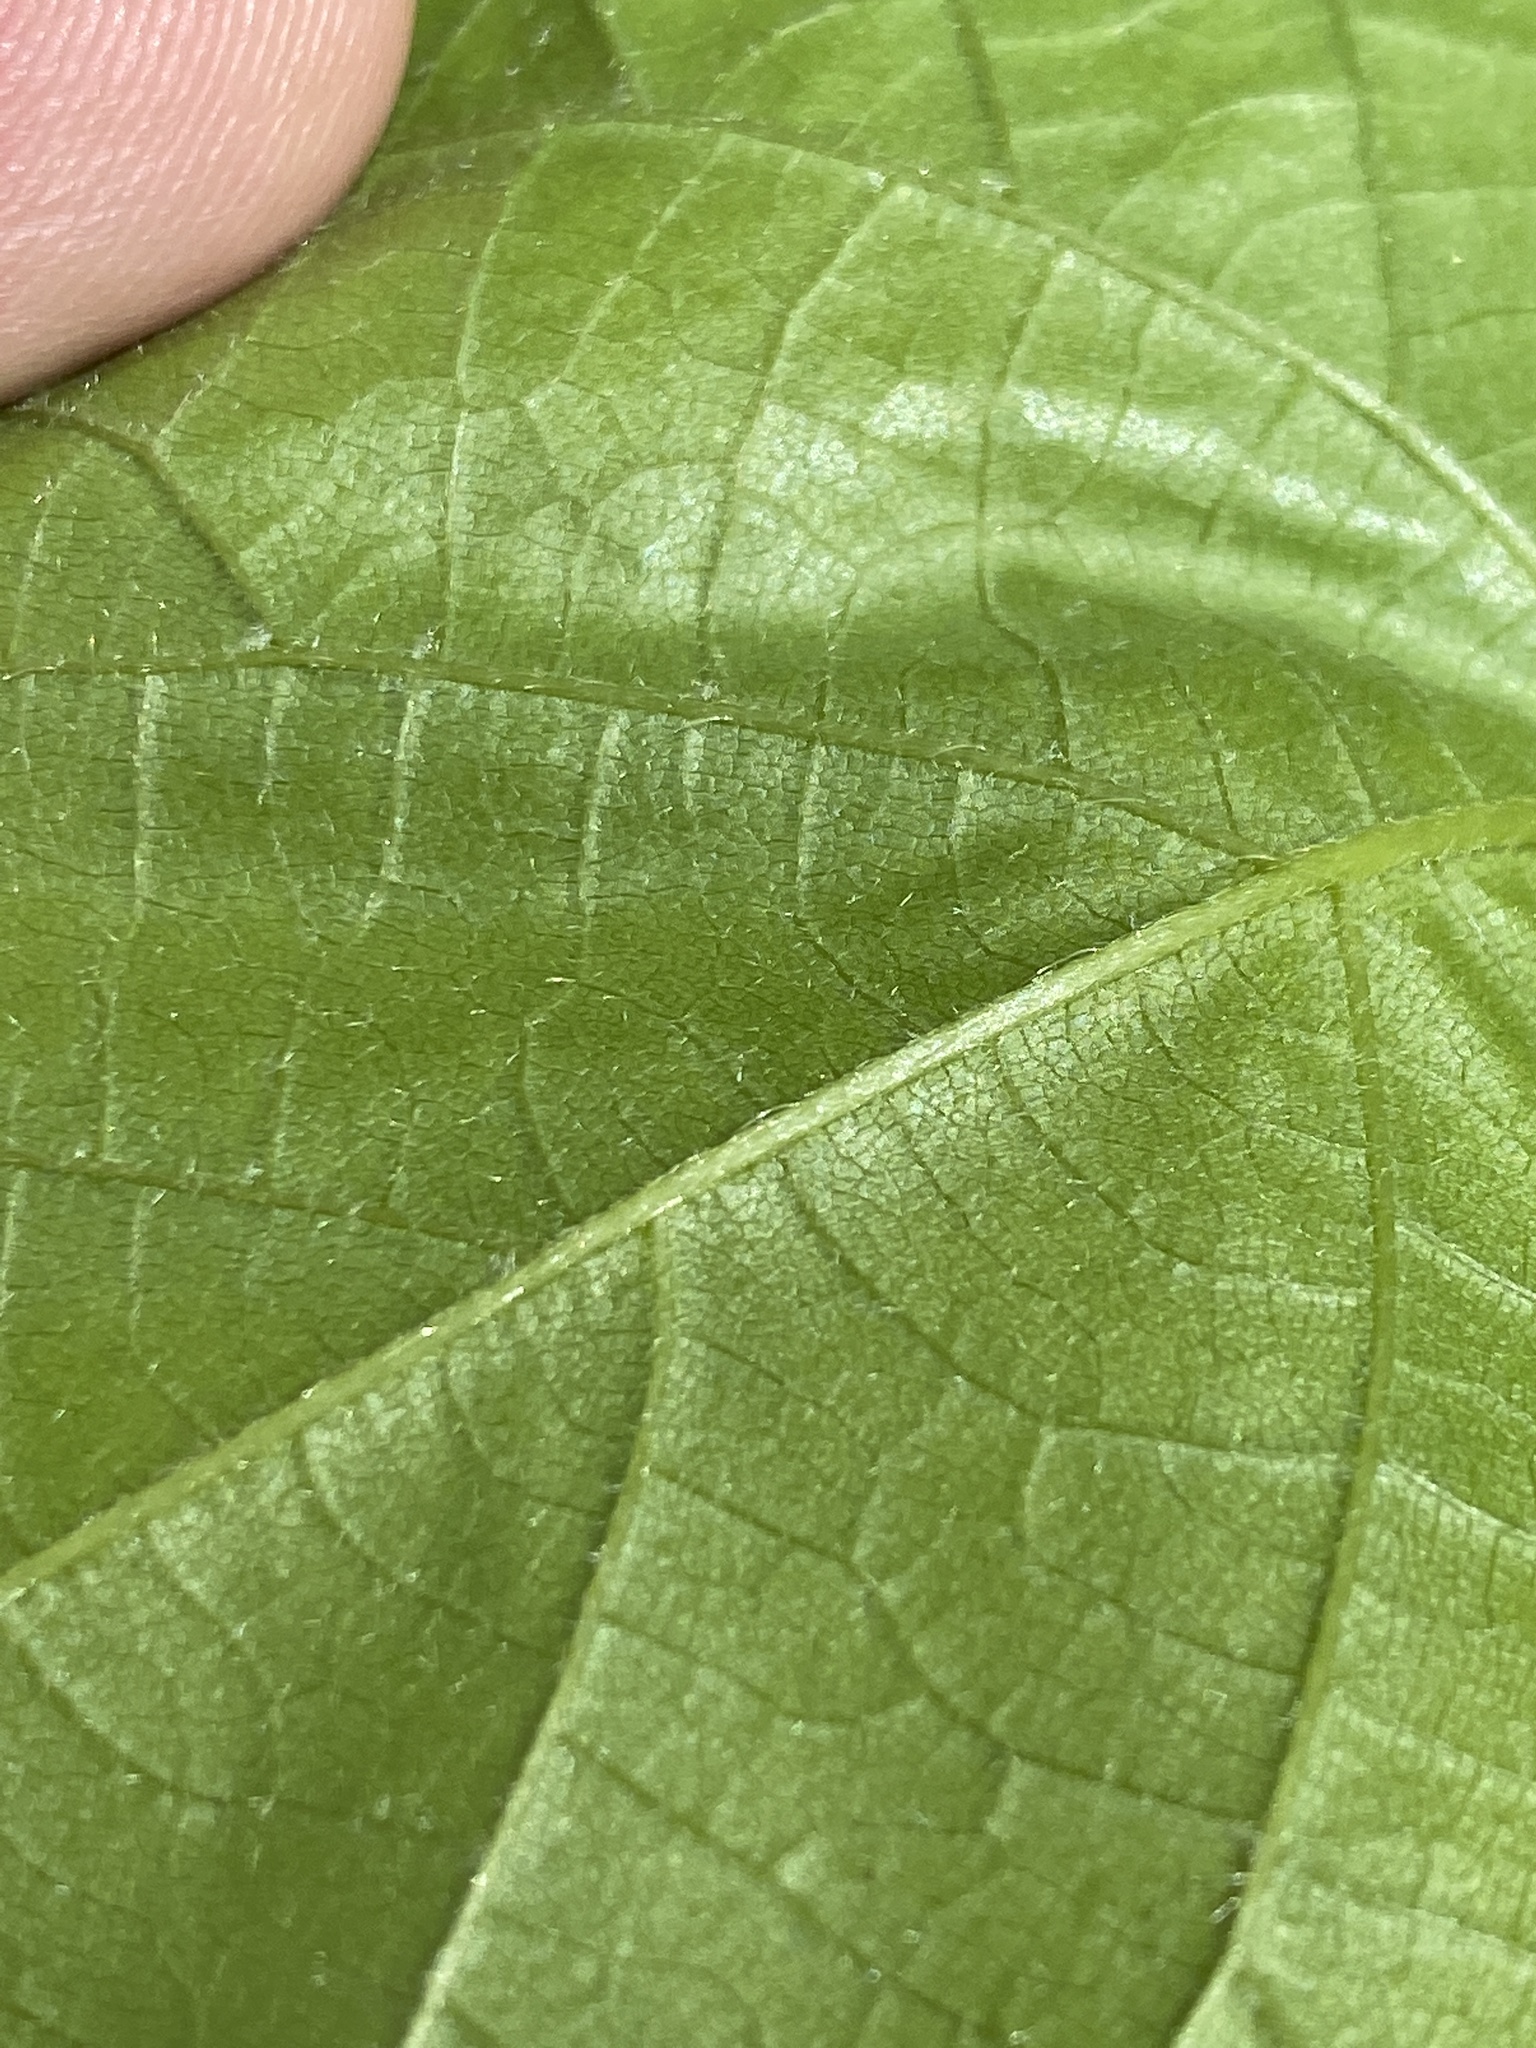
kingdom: Plantae
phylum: Tracheophyta
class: Magnoliopsida
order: Malvales
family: Malvaceae
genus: Tilia
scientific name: Tilia americana
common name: Basswood
